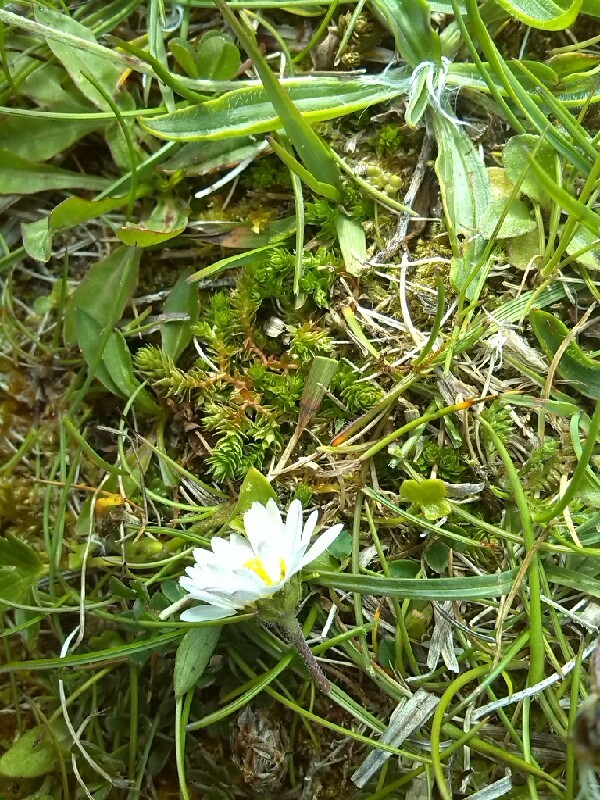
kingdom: Plantae
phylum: Tracheophyta
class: Lycopodiopsida
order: Selaginellales
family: Selaginellaceae
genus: Selaginella
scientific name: Selaginella selaginoides
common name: Prickly mountain-moss
